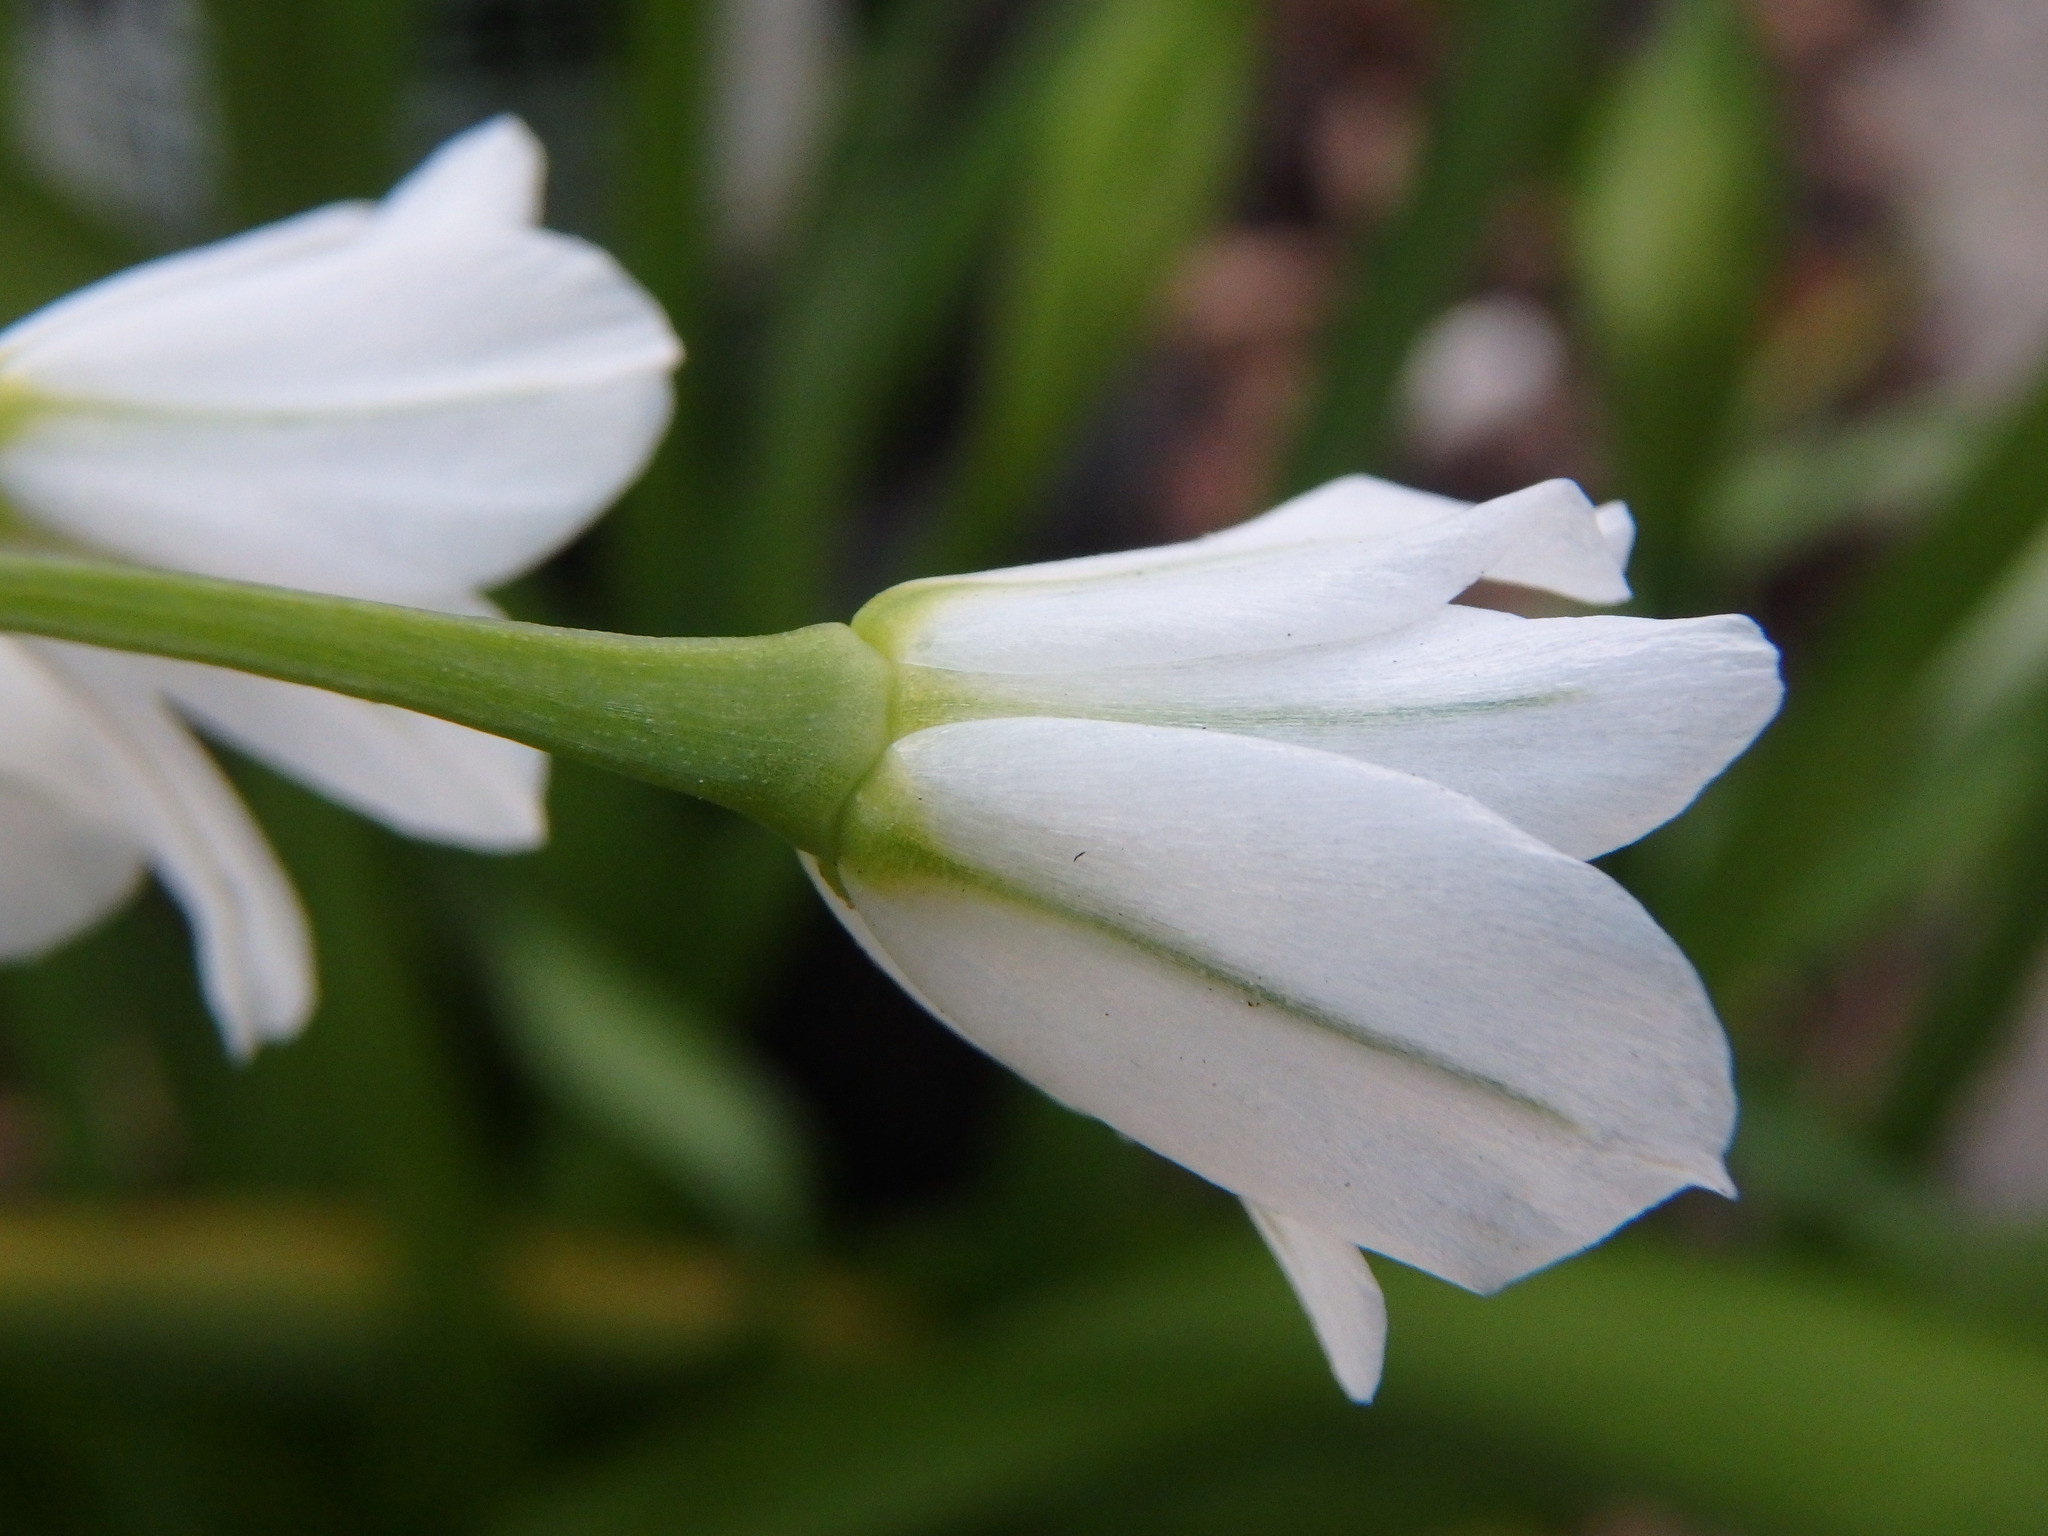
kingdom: Plantae
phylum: Tracheophyta
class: Liliopsida
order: Asparagales
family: Amaryllidaceae
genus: Allium
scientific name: Allium triquetrum
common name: Three-cornered garlic
